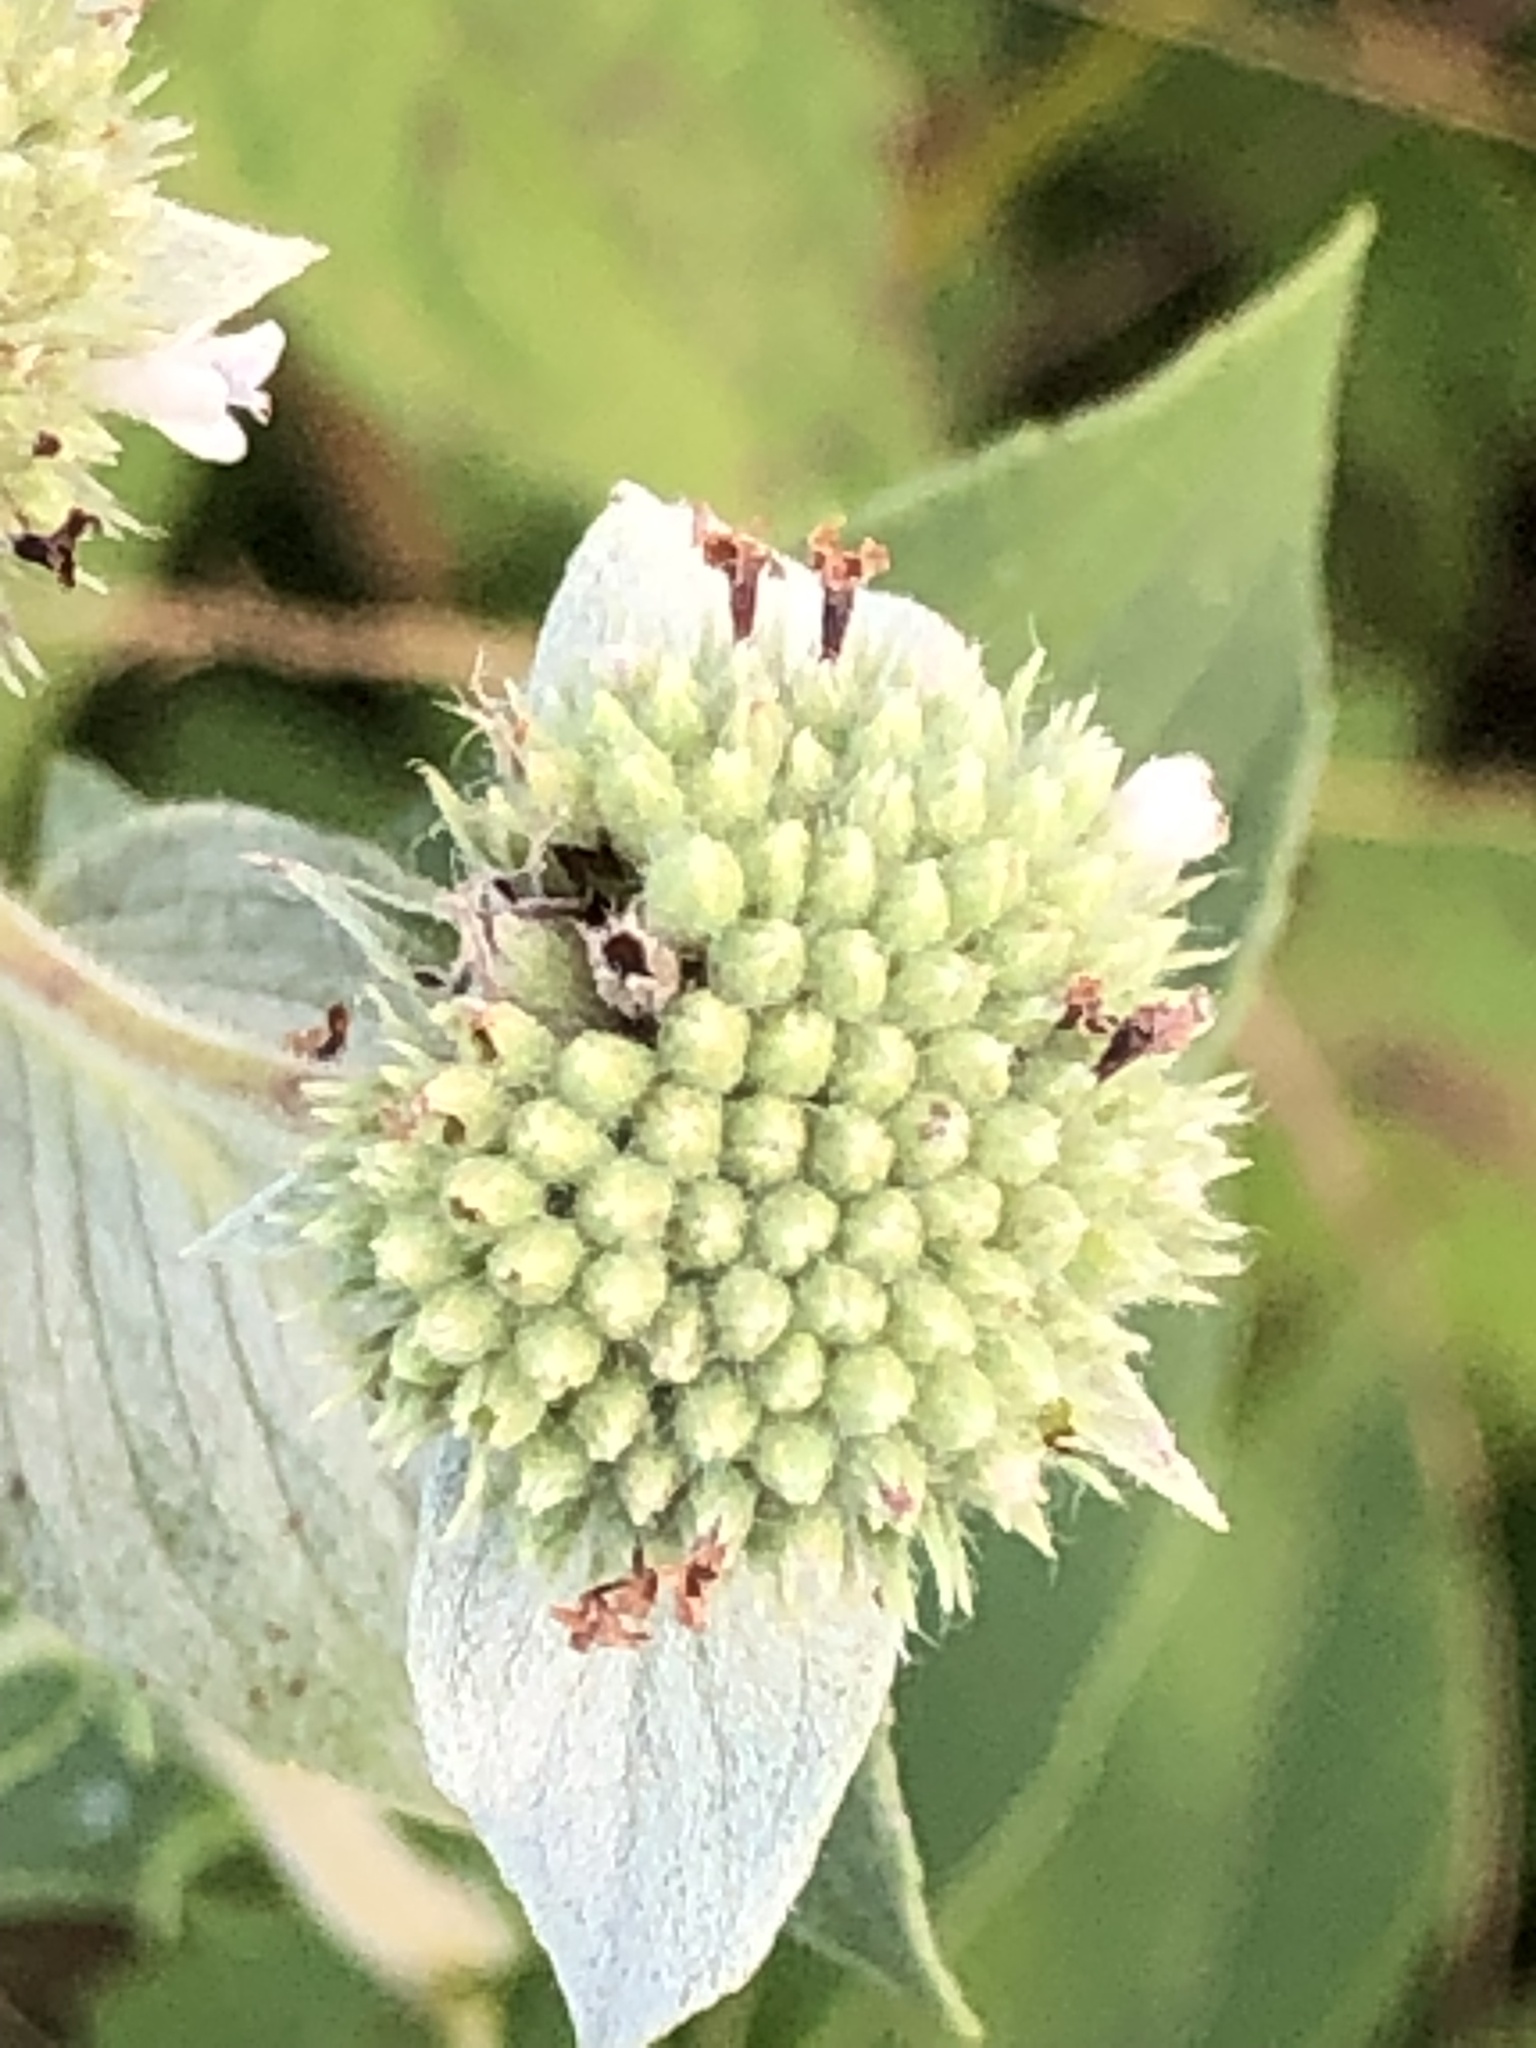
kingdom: Plantae
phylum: Tracheophyta
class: Magnoliopsida
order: Lamiales
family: Lamiaceae
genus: Pycnanthemum
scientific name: Pycnanthemum muticum
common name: Blunt mountain-mint
